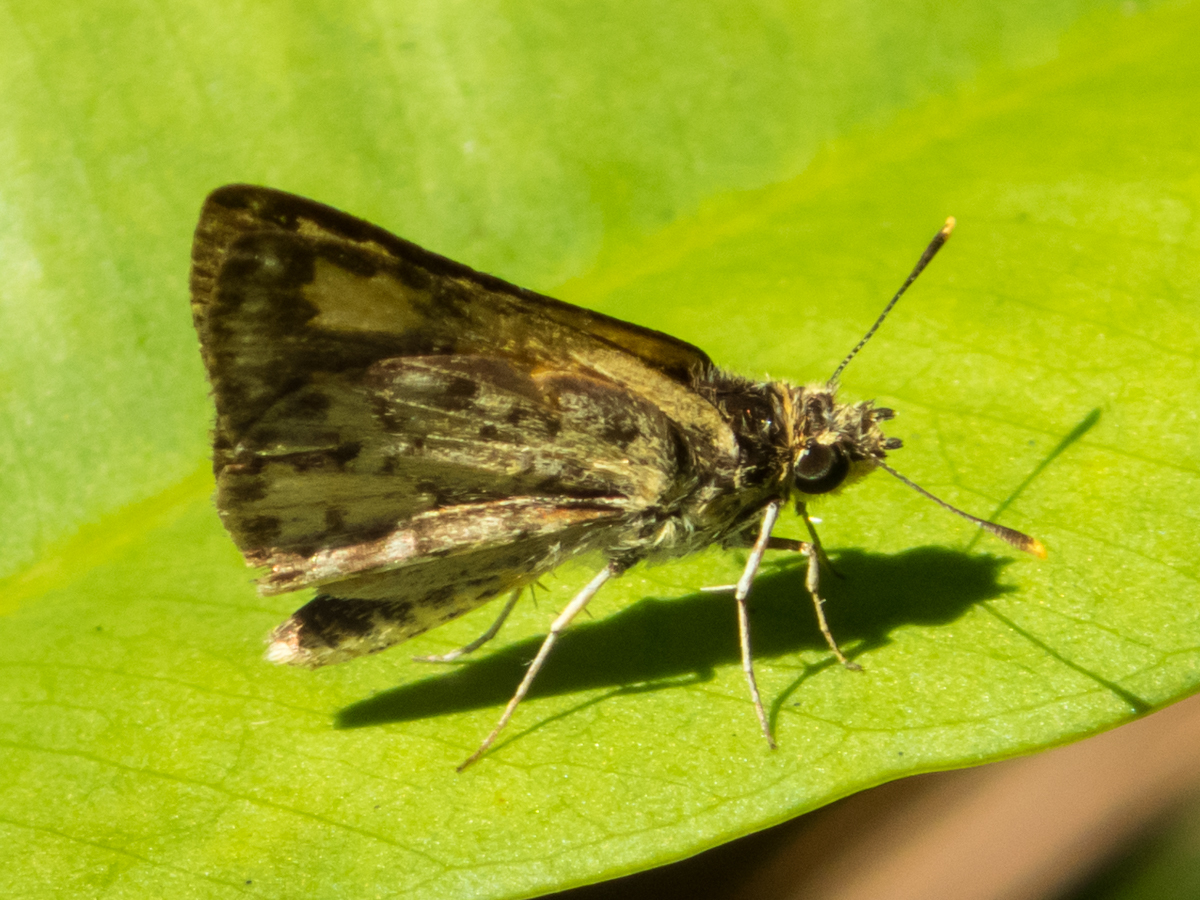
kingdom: Animalia
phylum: Arthropoda
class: Insecta
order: Lepidoptera
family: Hesperiidae
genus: Ampittia
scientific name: Ampittia dioscorides
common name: Common bush hopper
